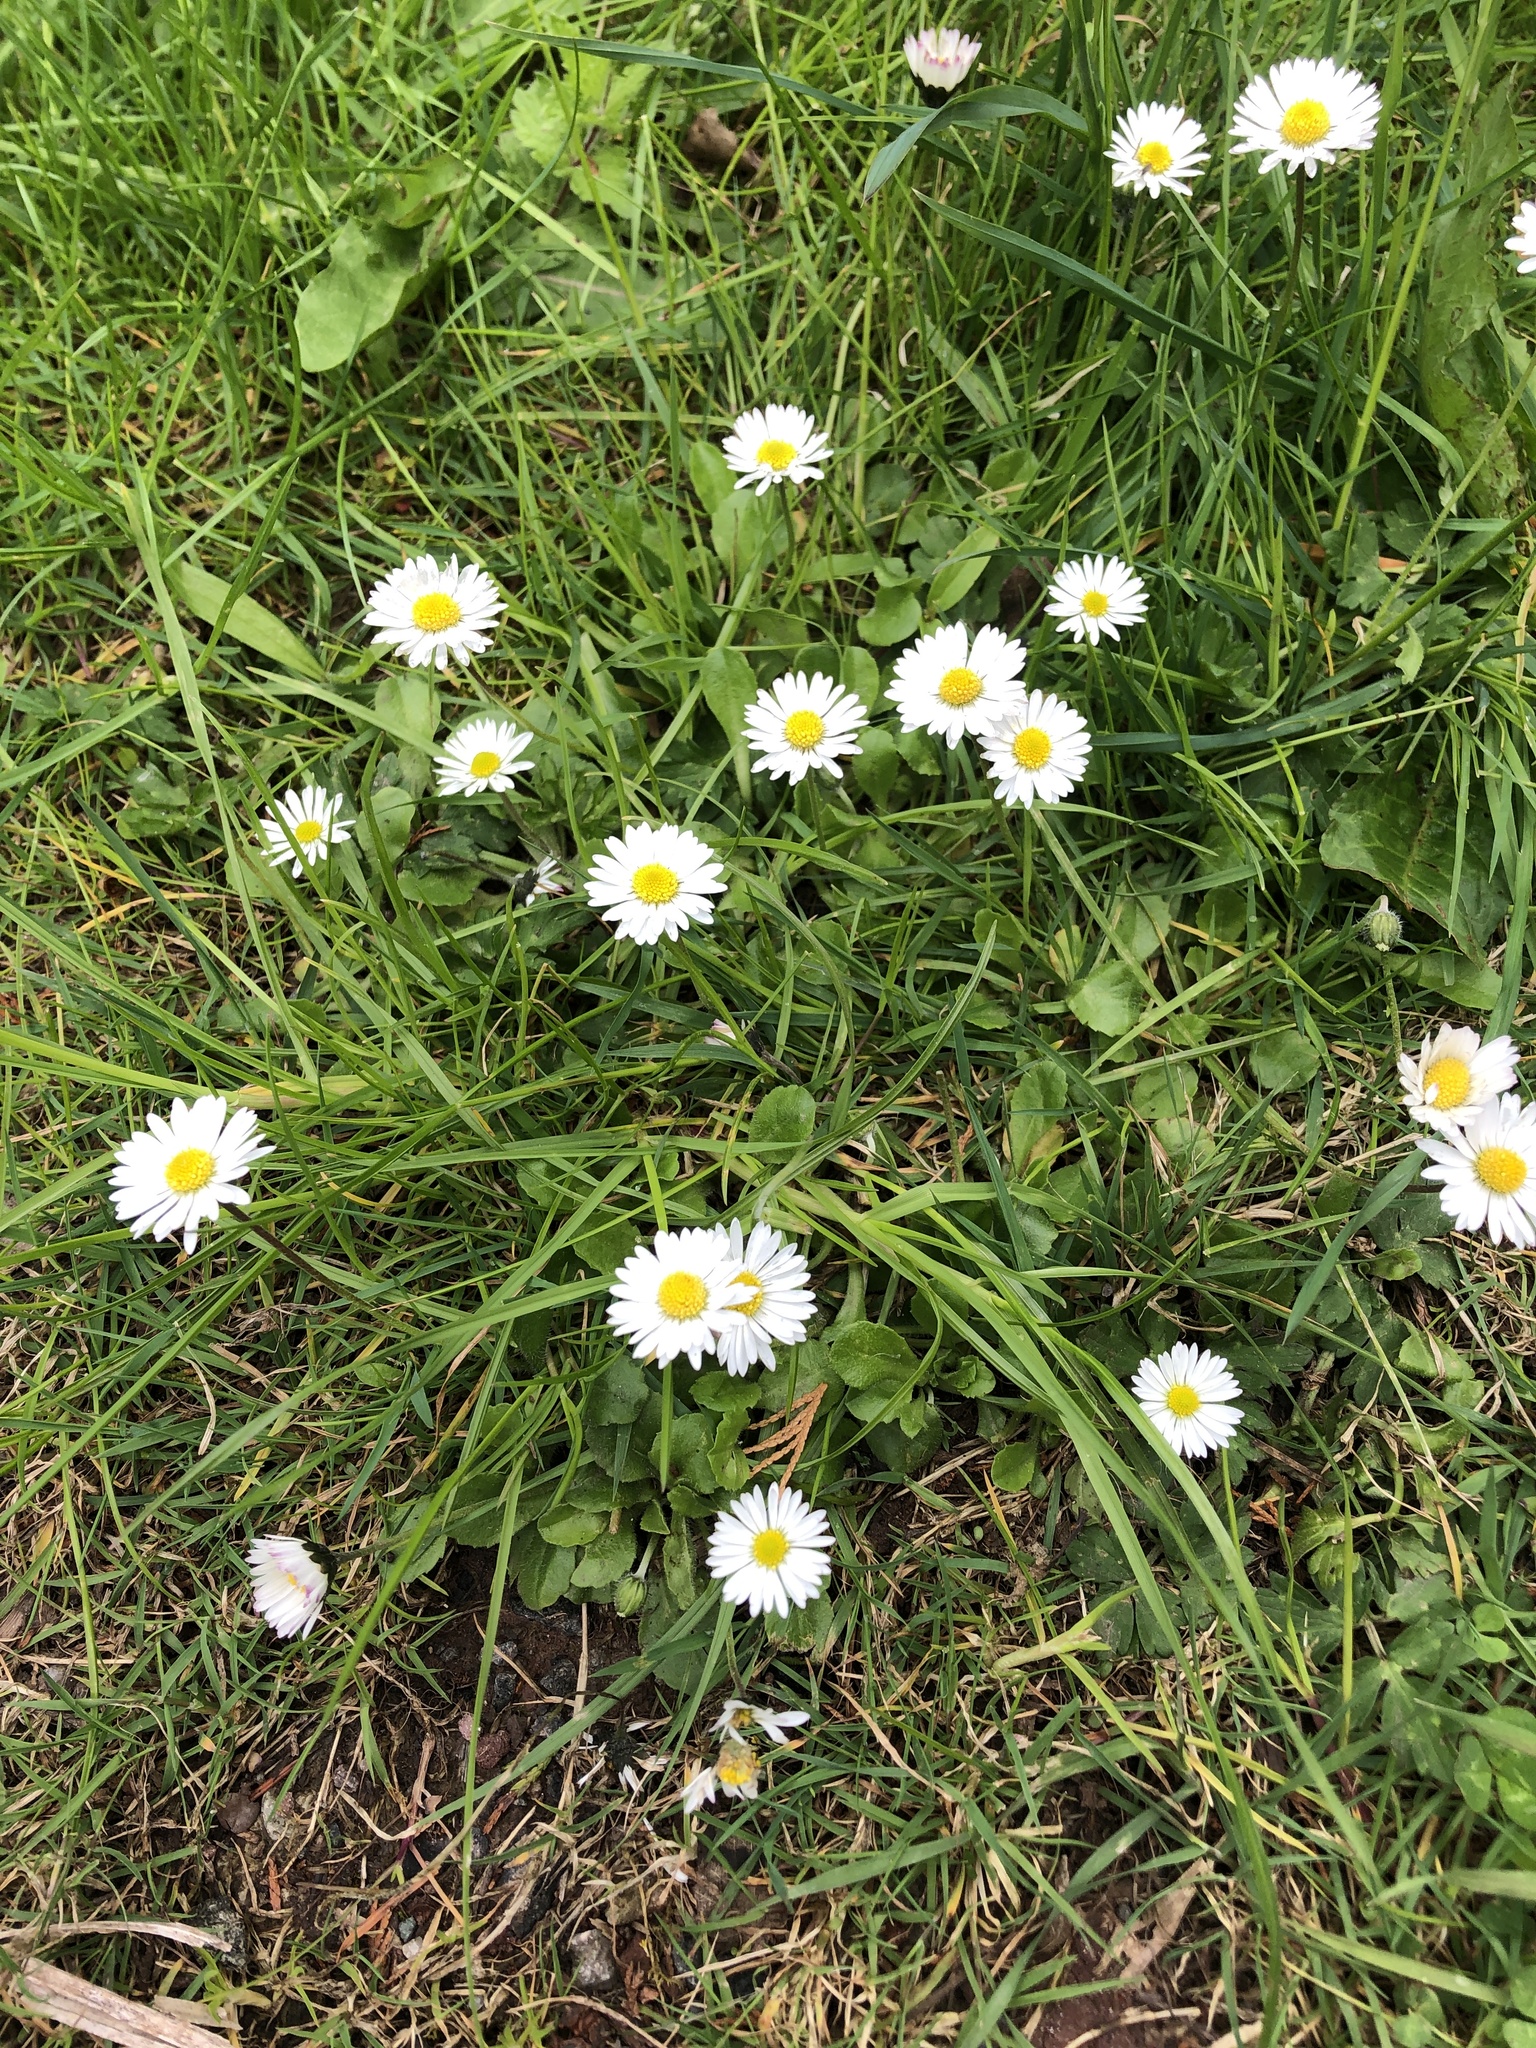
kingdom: Plantae
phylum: Tracheophyta
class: Magnoliopsida
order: Asterales
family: Asteraceae
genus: Bellis
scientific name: Bellis perennis
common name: Lawndaisy
